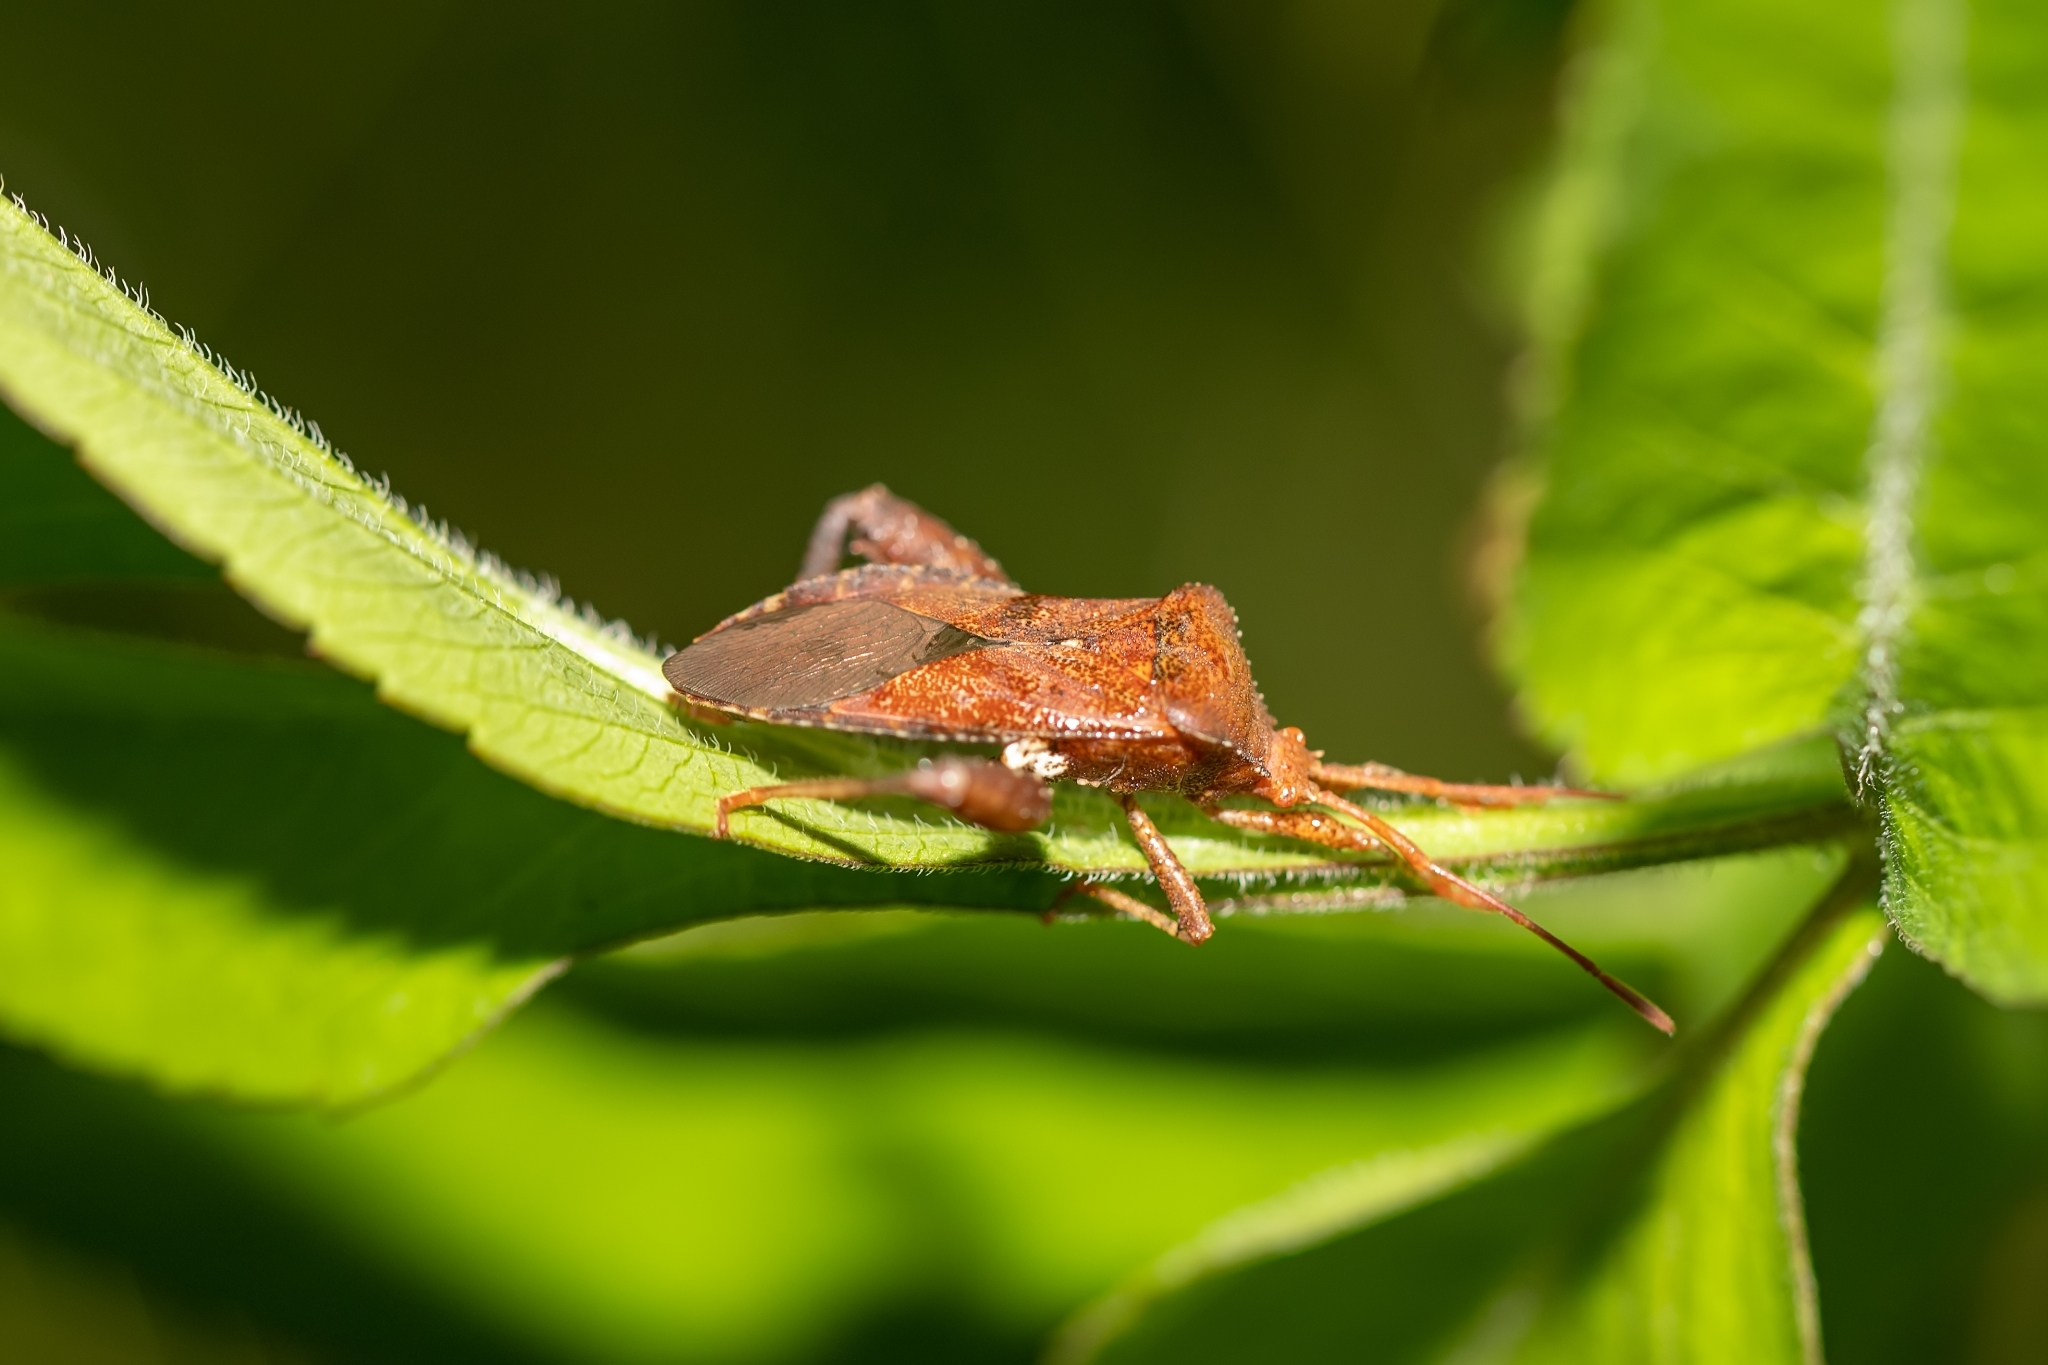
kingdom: Animalia
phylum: Arthropoda
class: Insecta
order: Hemiptera
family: Coreidae
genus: Euthochtha
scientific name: Euthochtha galeator
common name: Helmeted squash bug
